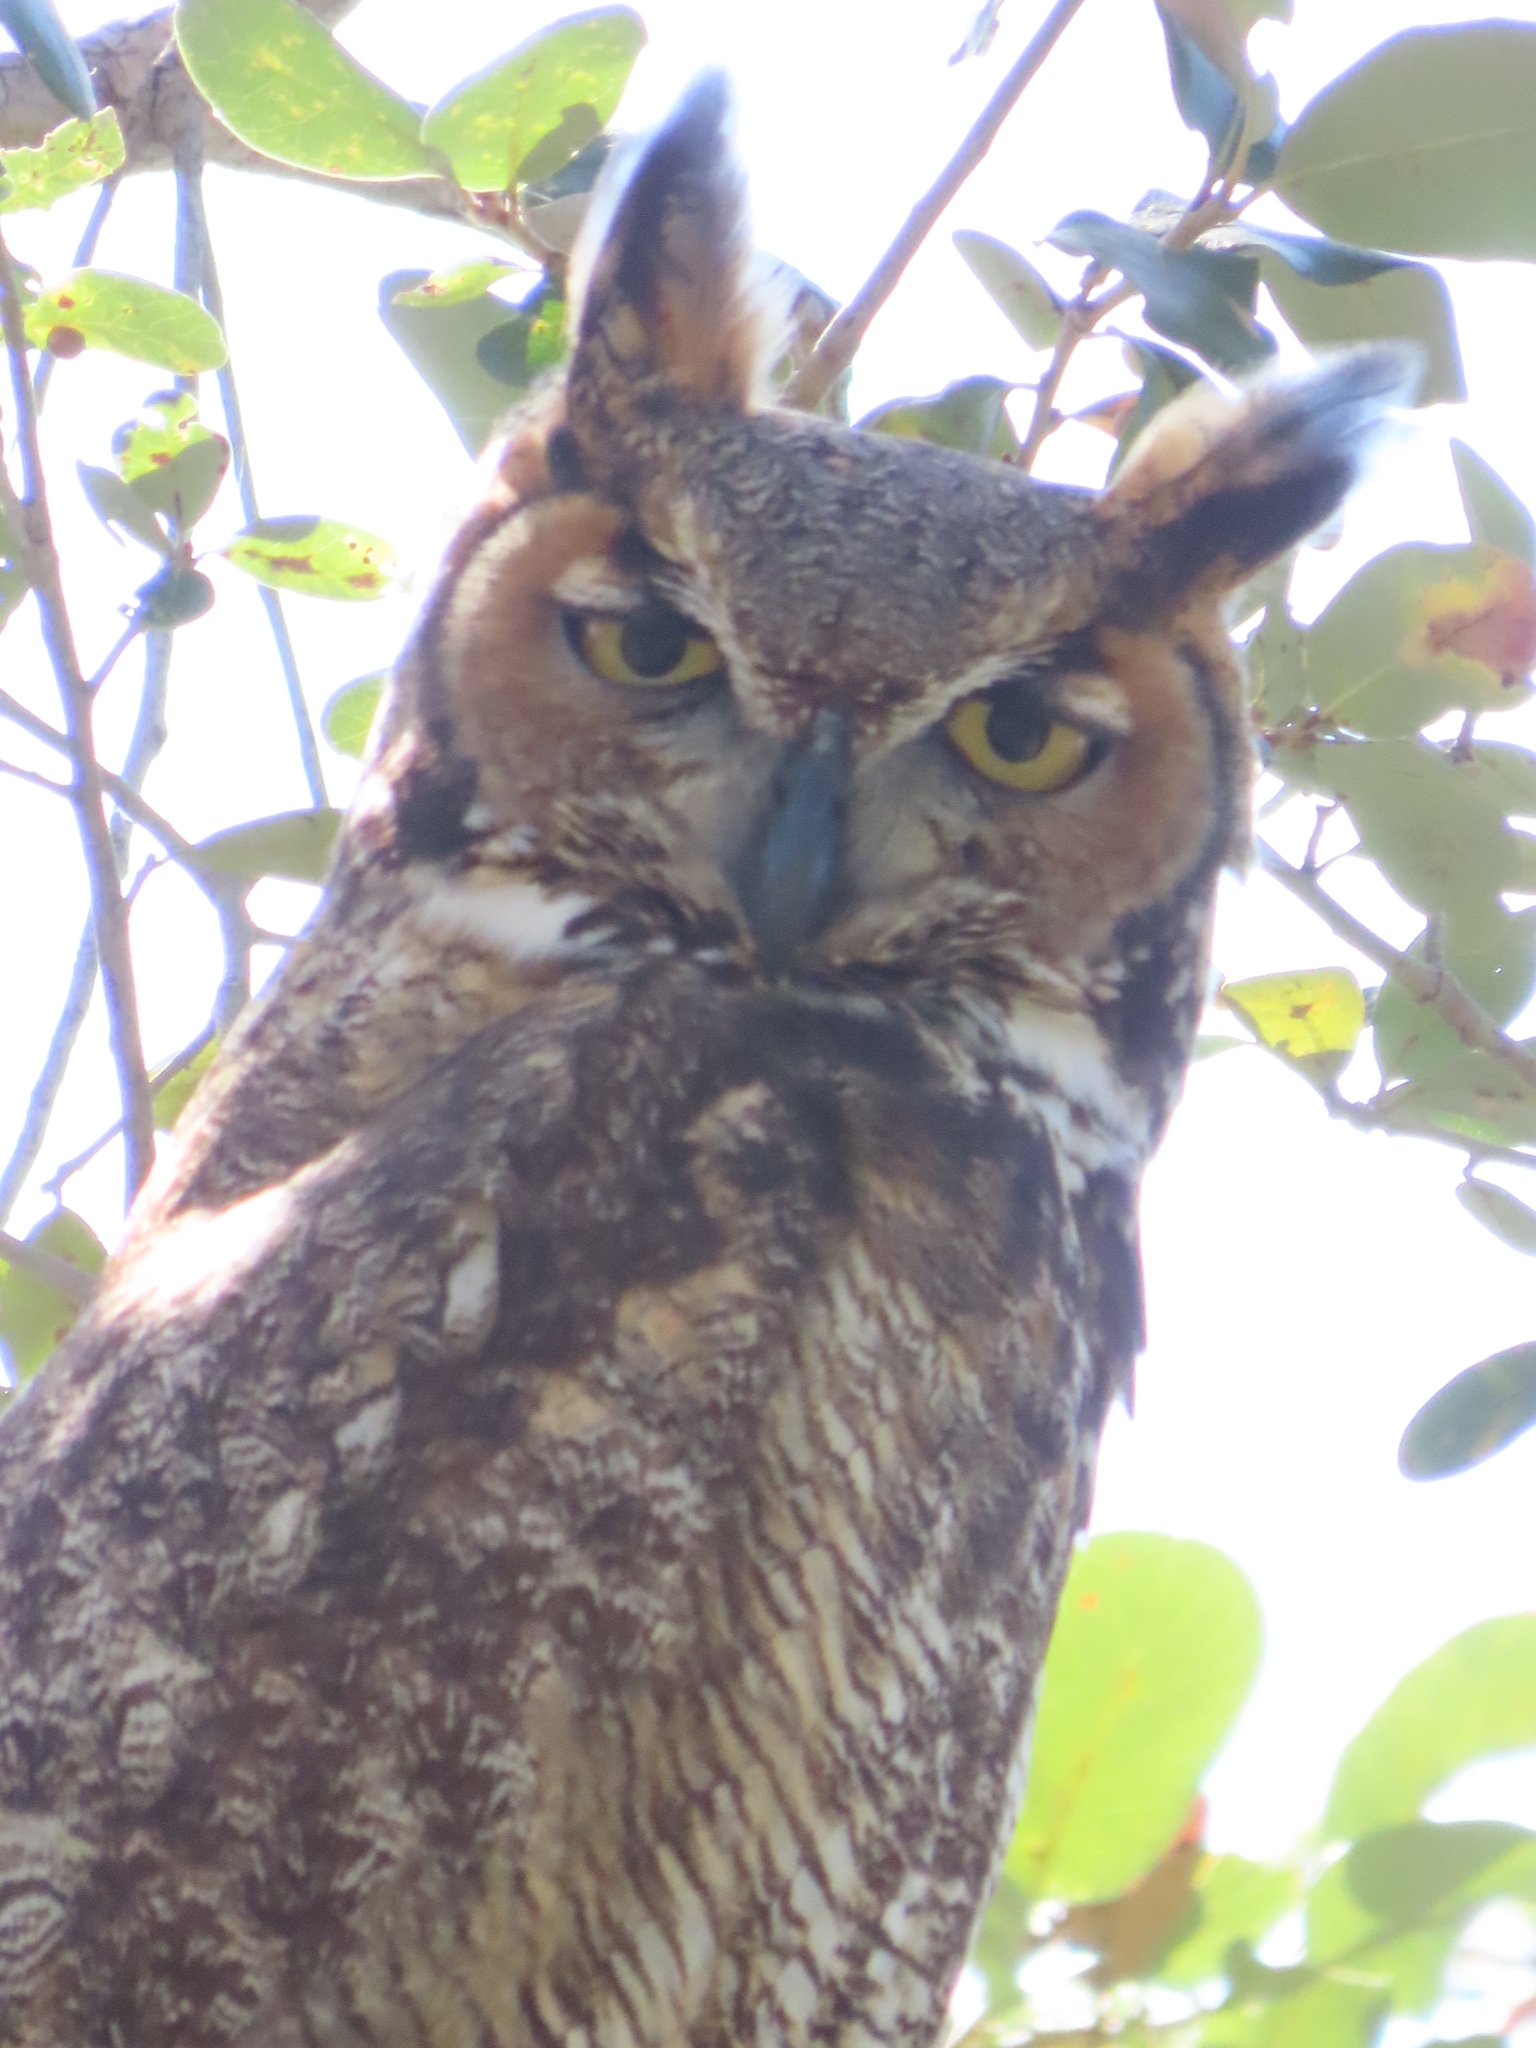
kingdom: Animalia
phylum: Chordata
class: Aves
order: Strigiformes
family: Strigidae
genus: Bubo
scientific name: Bubo virginianus
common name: Great horned owl
